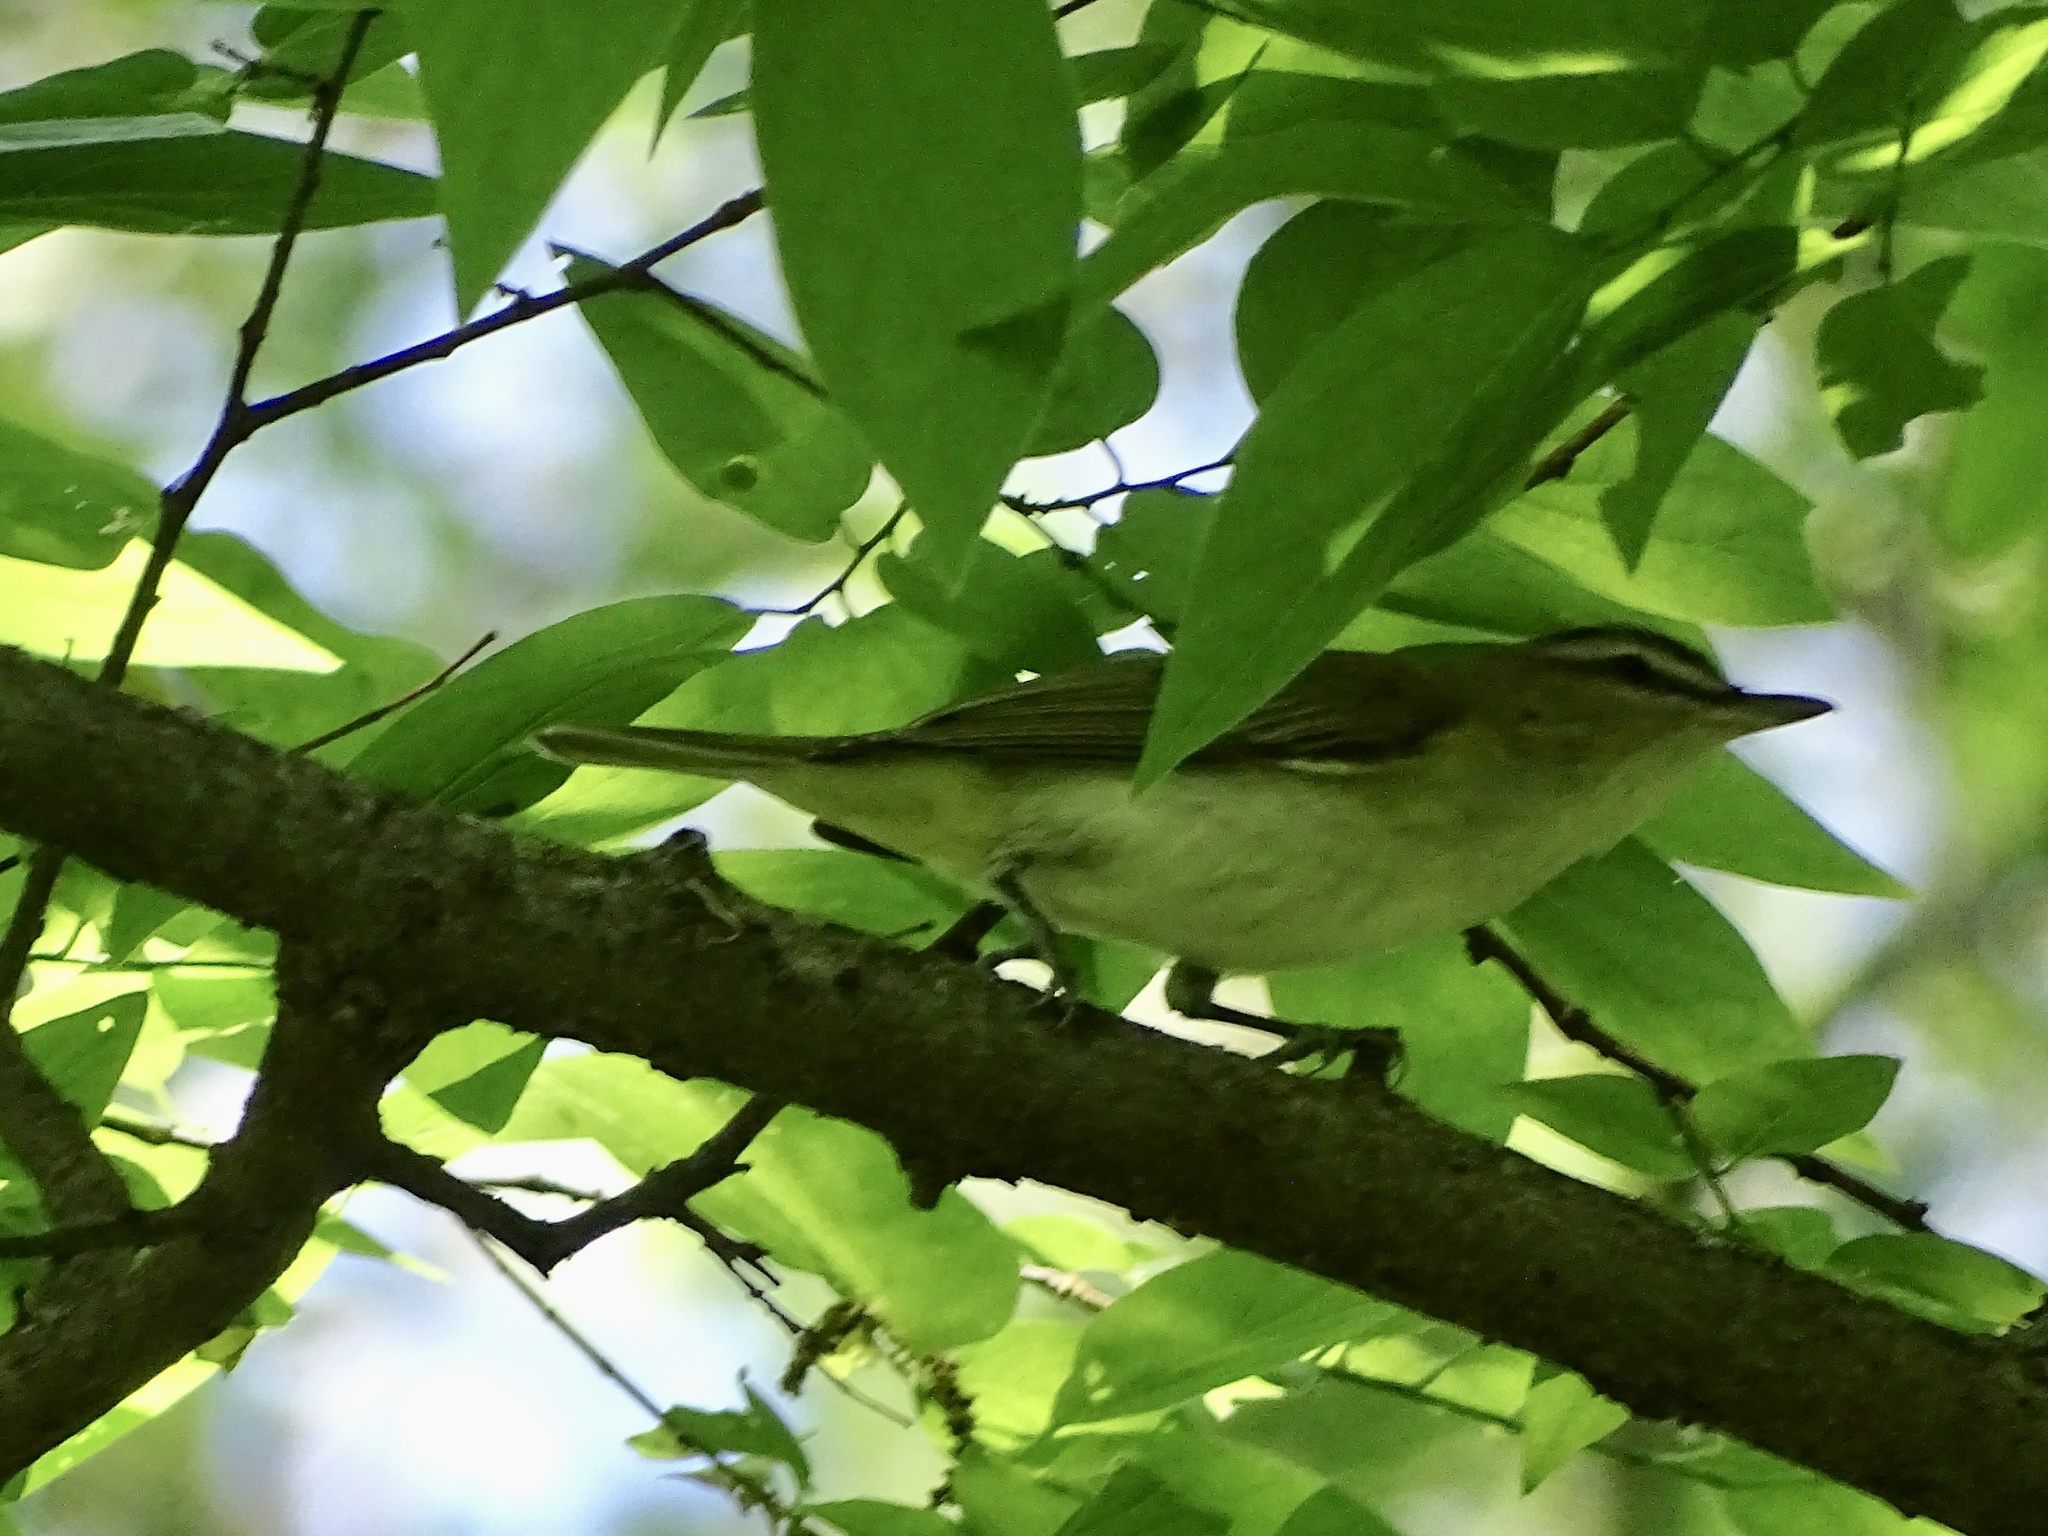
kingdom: Animalia
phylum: Chordata
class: Aves
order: Passeriformes
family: Vireonidae
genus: Vireo
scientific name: Vireo olivaceus
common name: Red-eyed vireo
